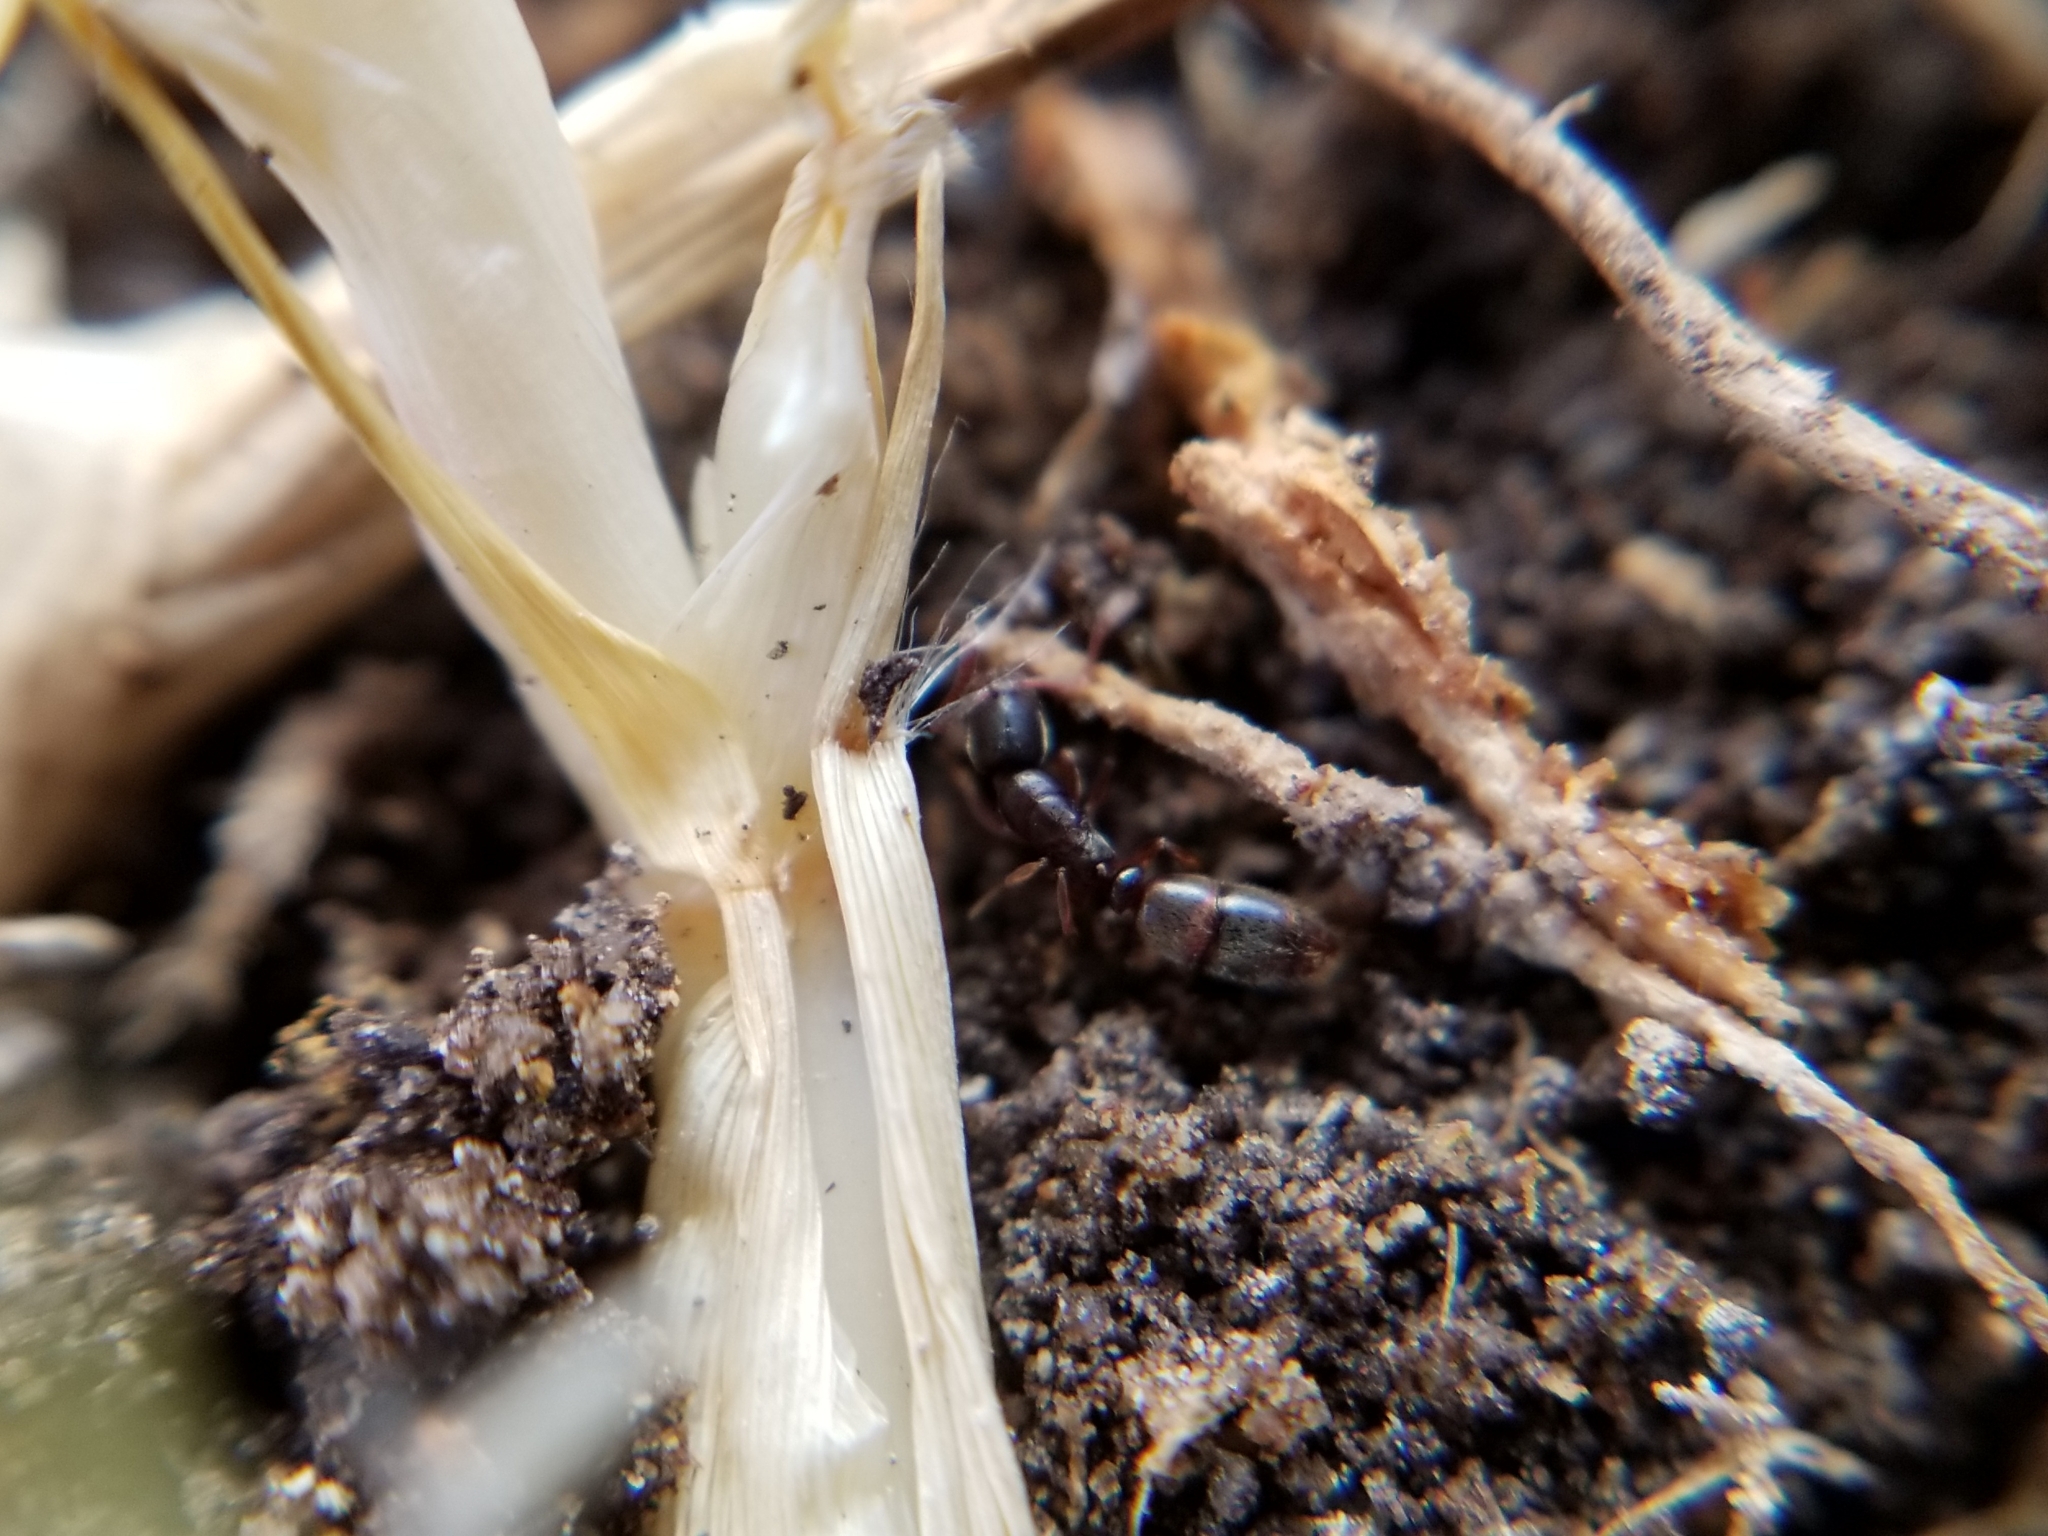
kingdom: Animalia
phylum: Arthropoda
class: Insecta
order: Hymenoptera
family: Formicidae
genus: Ponera
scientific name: Ponera pennsylvanica
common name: Pennsylvania ponera
